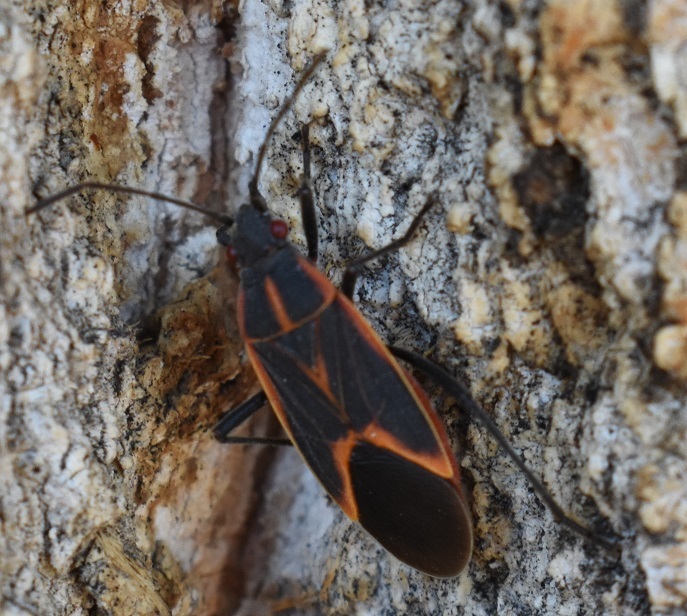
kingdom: Animalia
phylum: Arthropoda
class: Insecta
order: Hemiptera
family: Rhopalidae
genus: Boisea
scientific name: Boisea trivittata
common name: Boxelder bug
